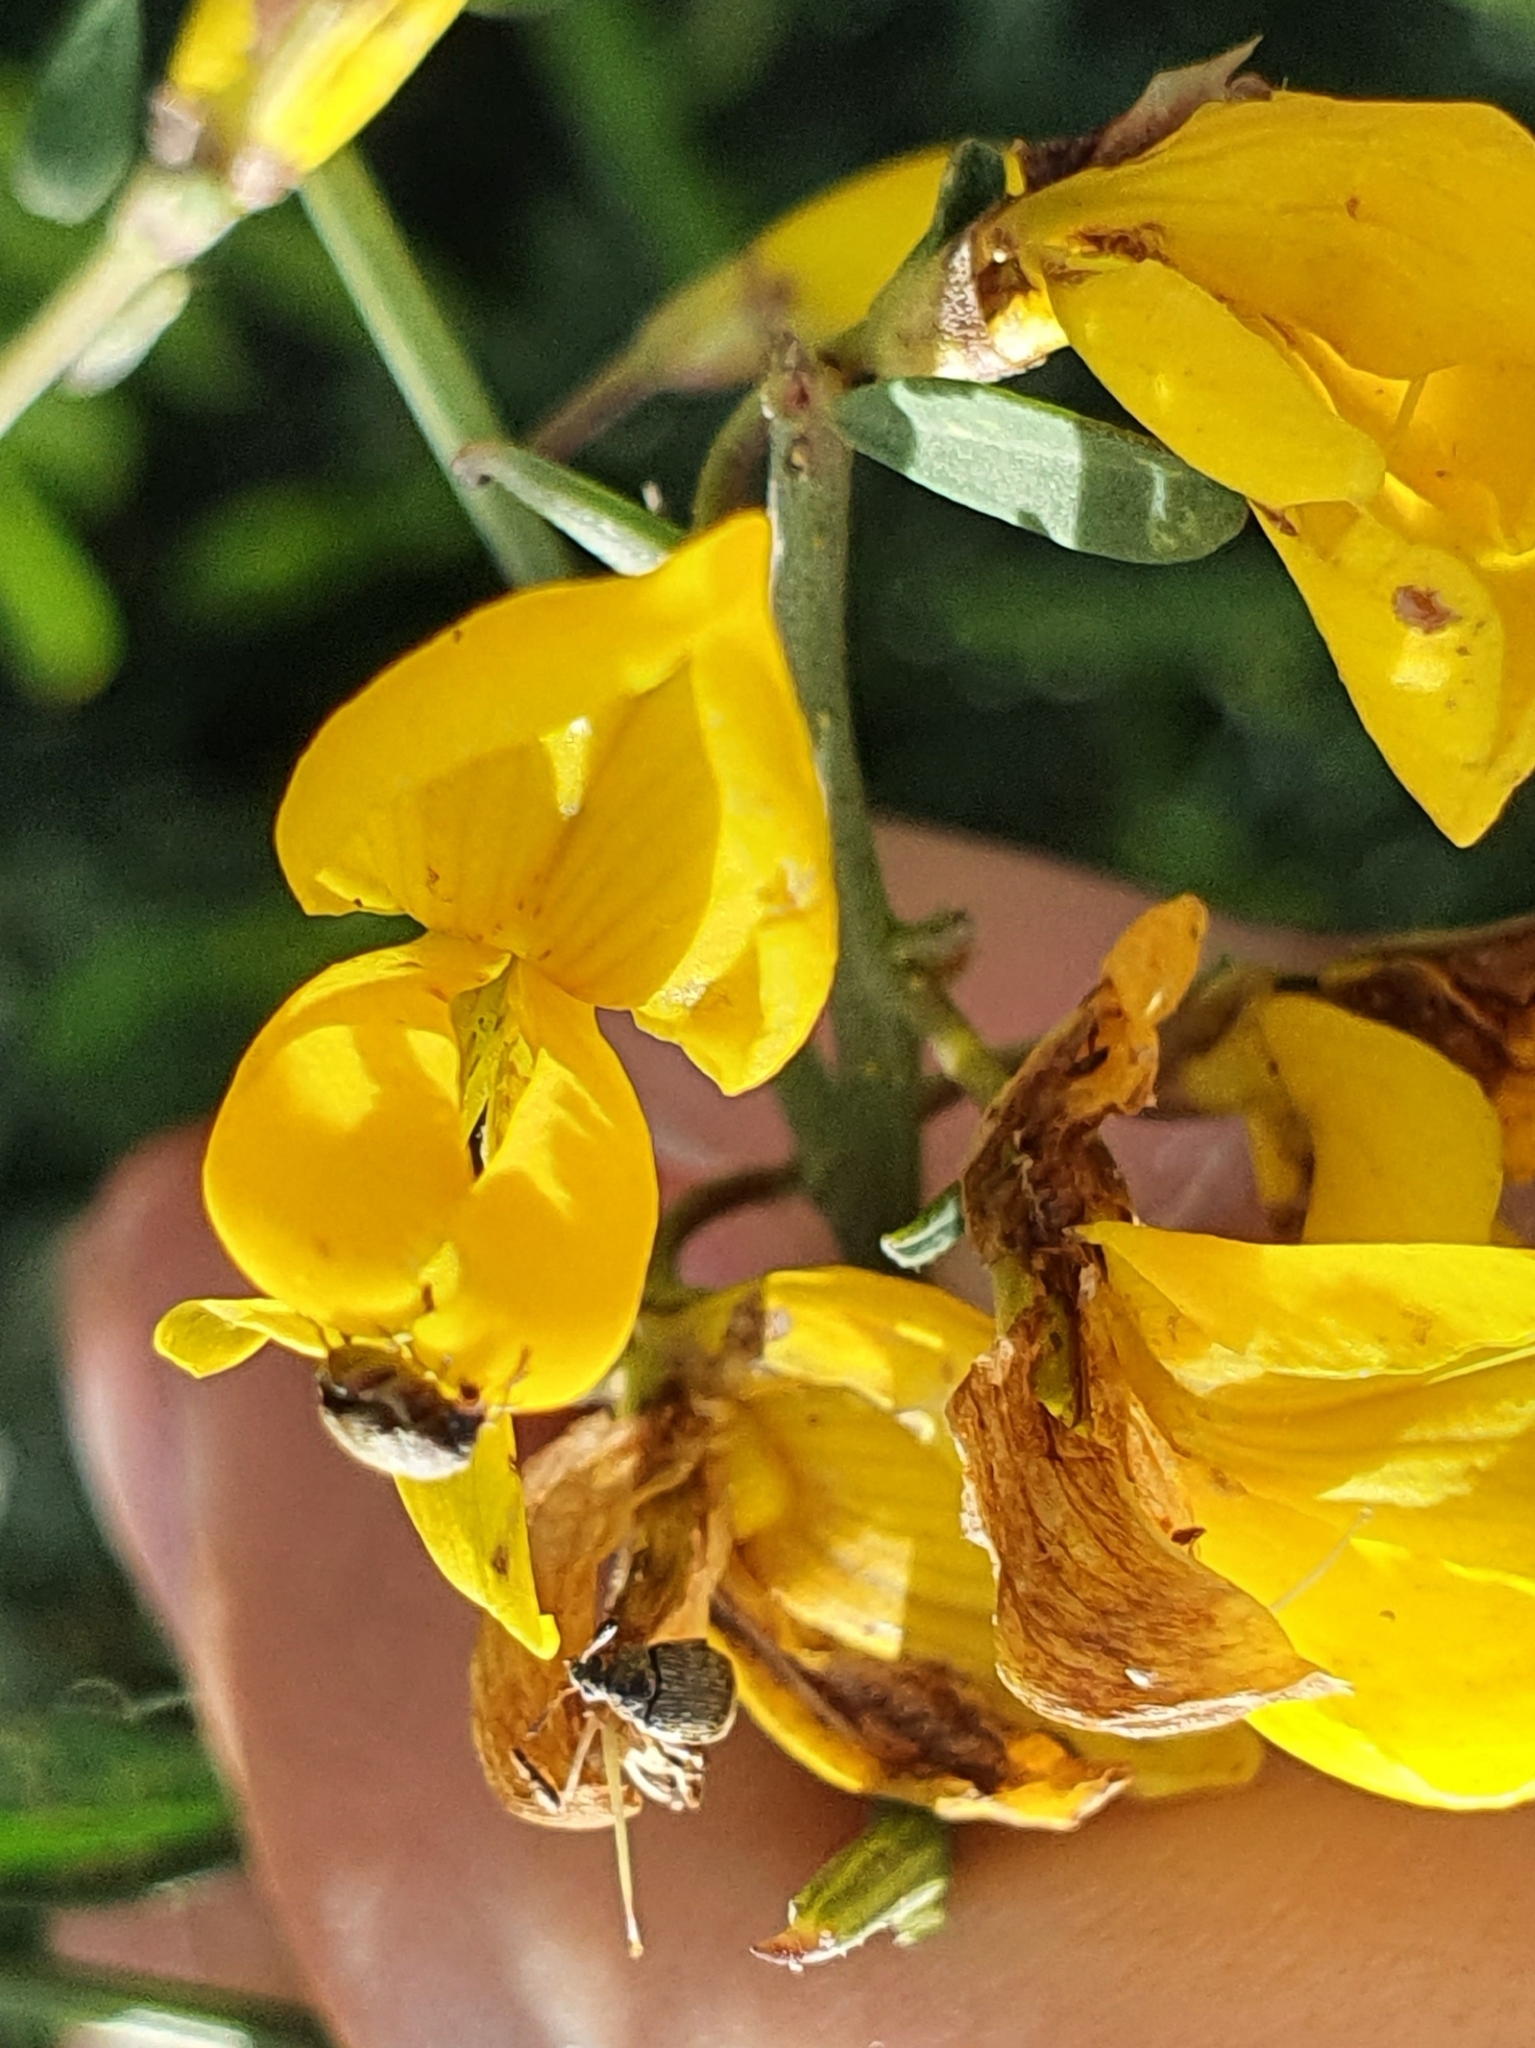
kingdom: Plantae
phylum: Tracheophyta
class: Magnoliopsida
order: Fabales
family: Fabaceae
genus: Calicotome
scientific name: Calicotome spinosa
